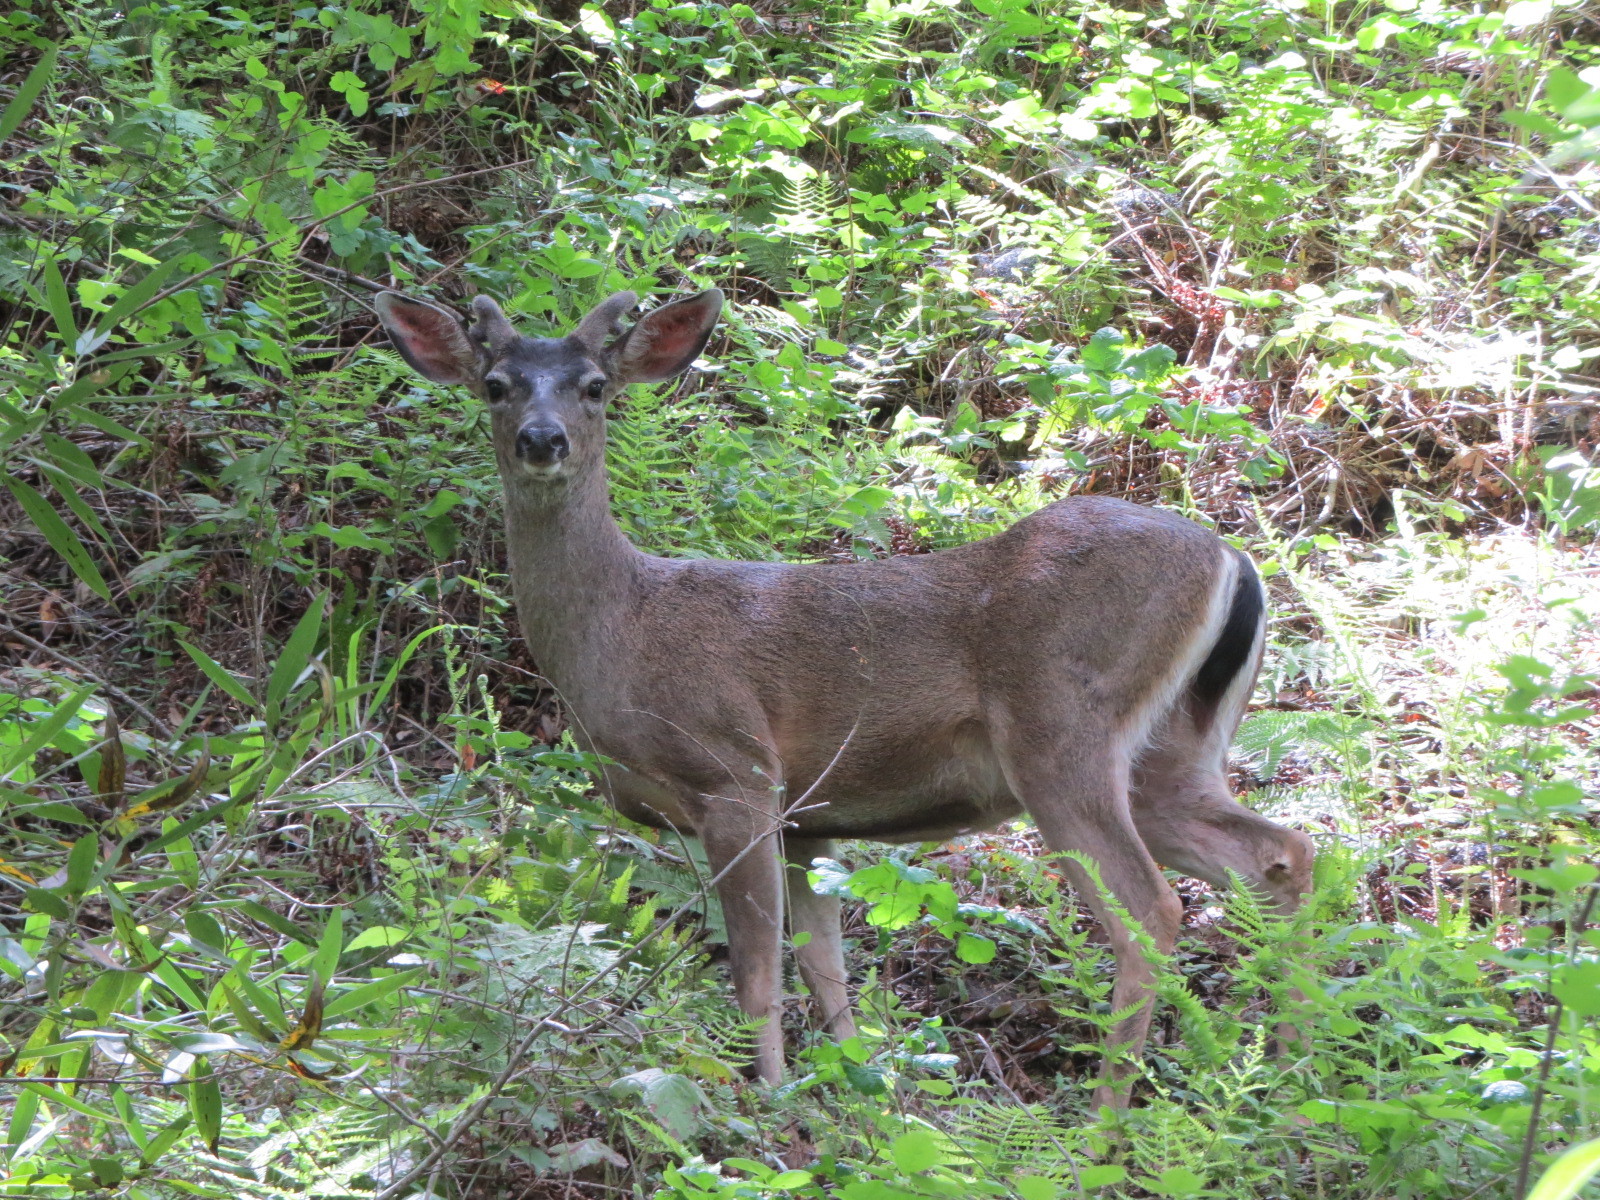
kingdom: Animalia
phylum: Chordata
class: Mammalia
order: Artiodactyla
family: Cervidae
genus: Odocoileus
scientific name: Odocoileus hemionus
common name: Mule deer
